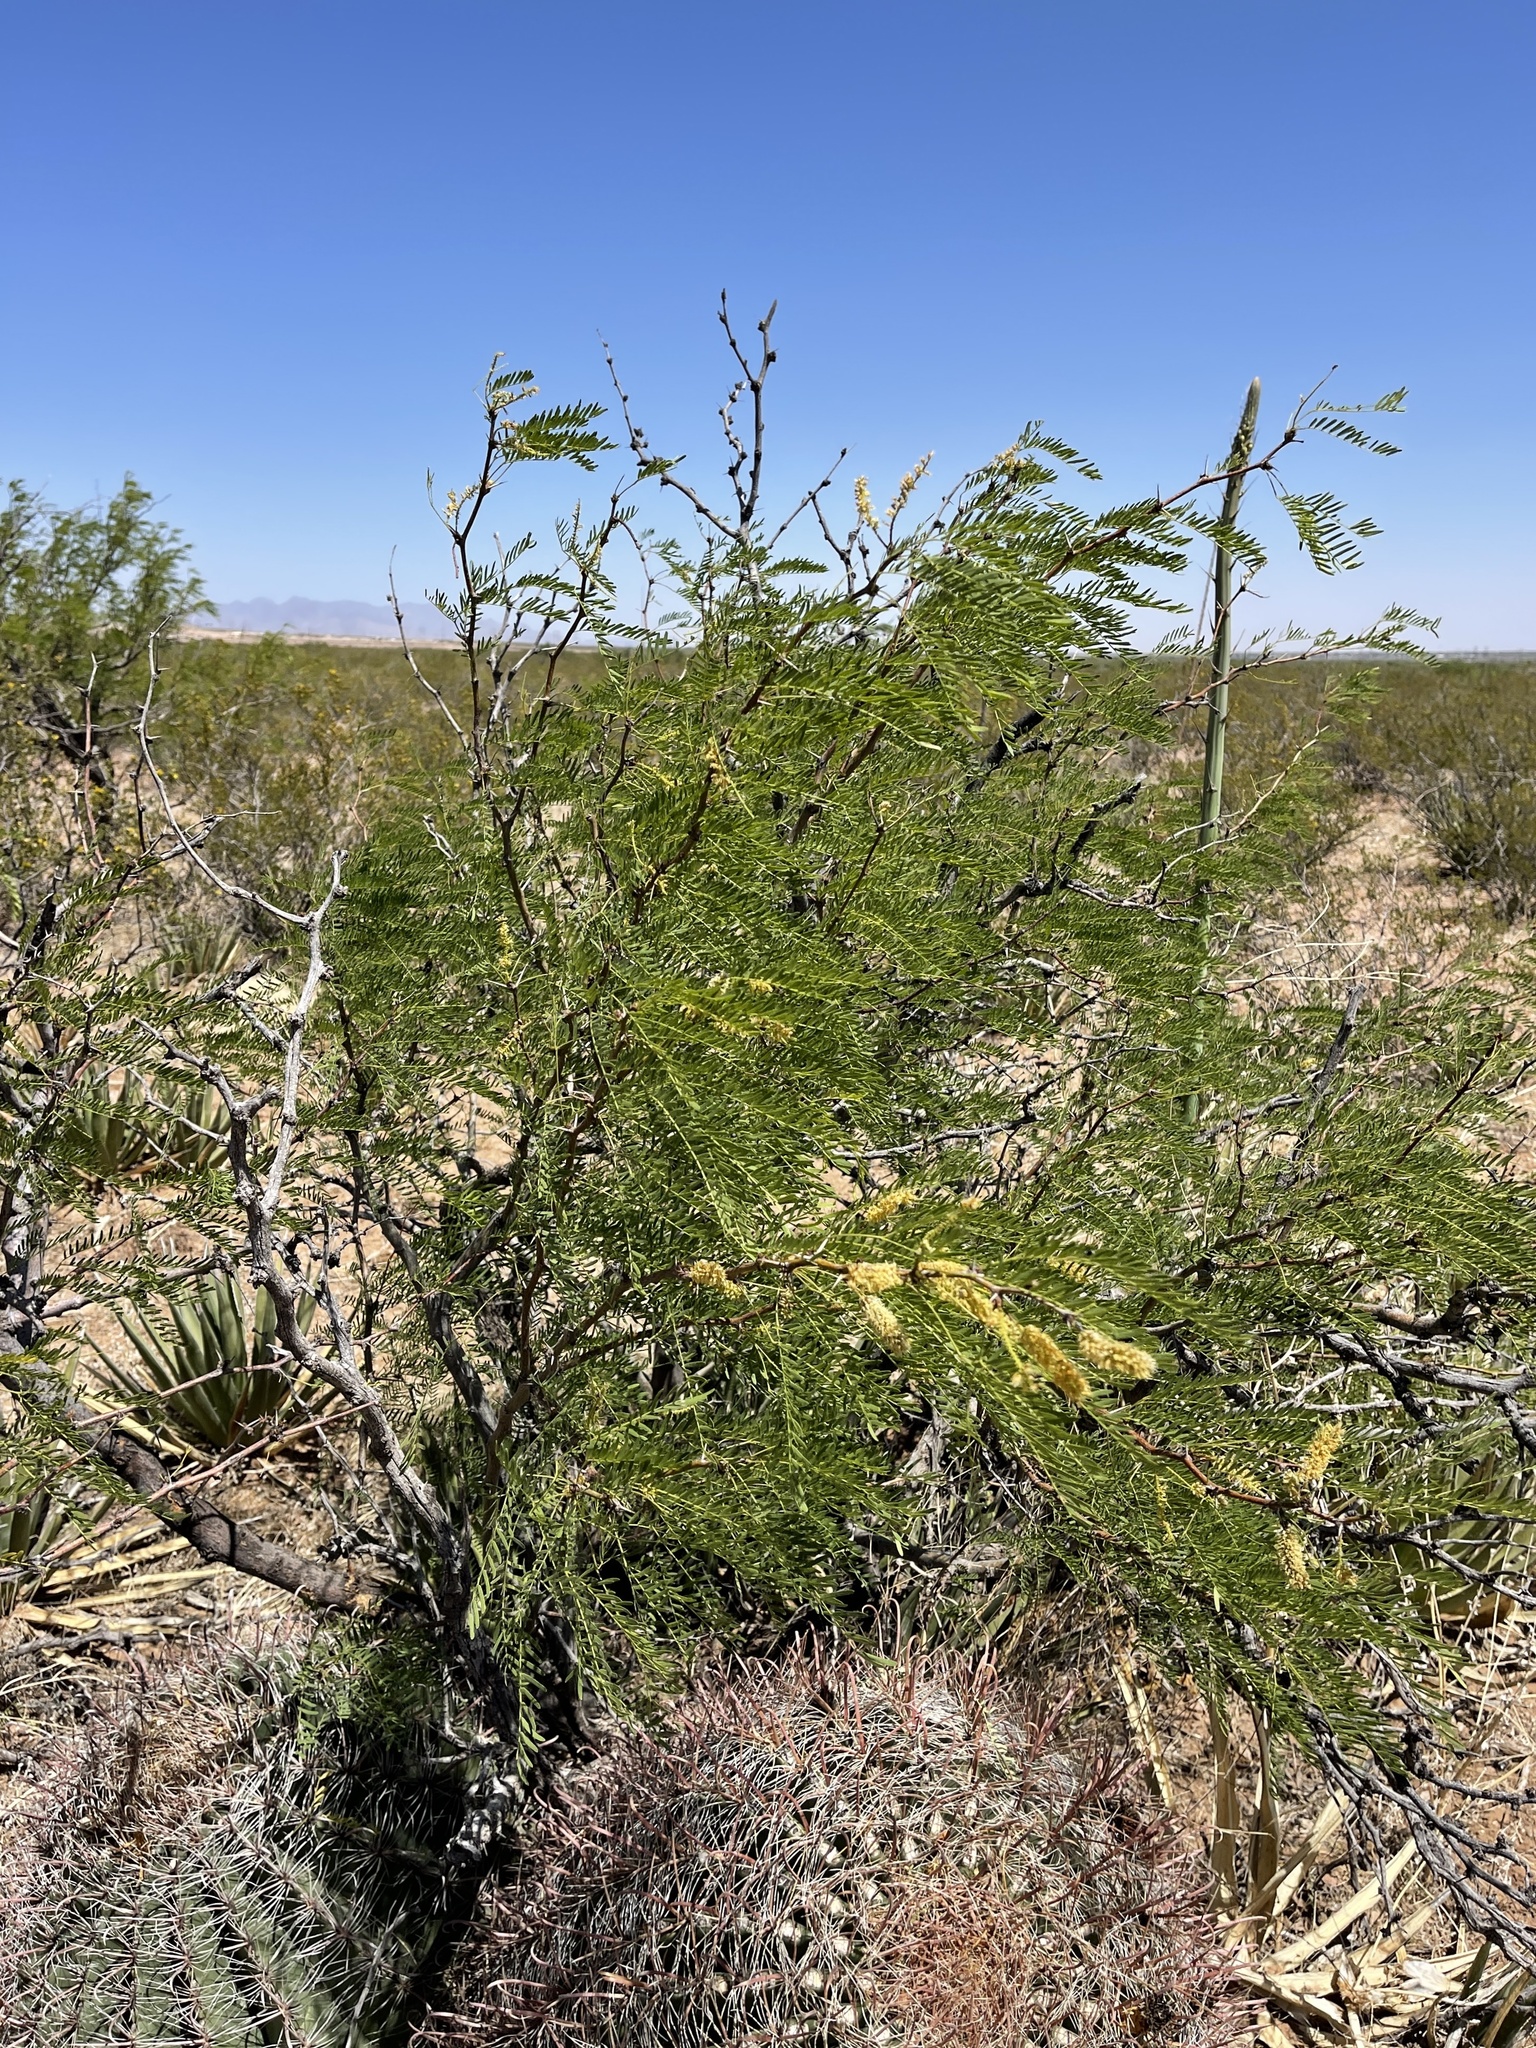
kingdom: Plantae
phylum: Tracheophyta
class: Magnoliopsida
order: Fabales
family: Fabaceae
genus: Prosopis
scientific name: Prosopis glandulosa
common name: Honey mesquite
